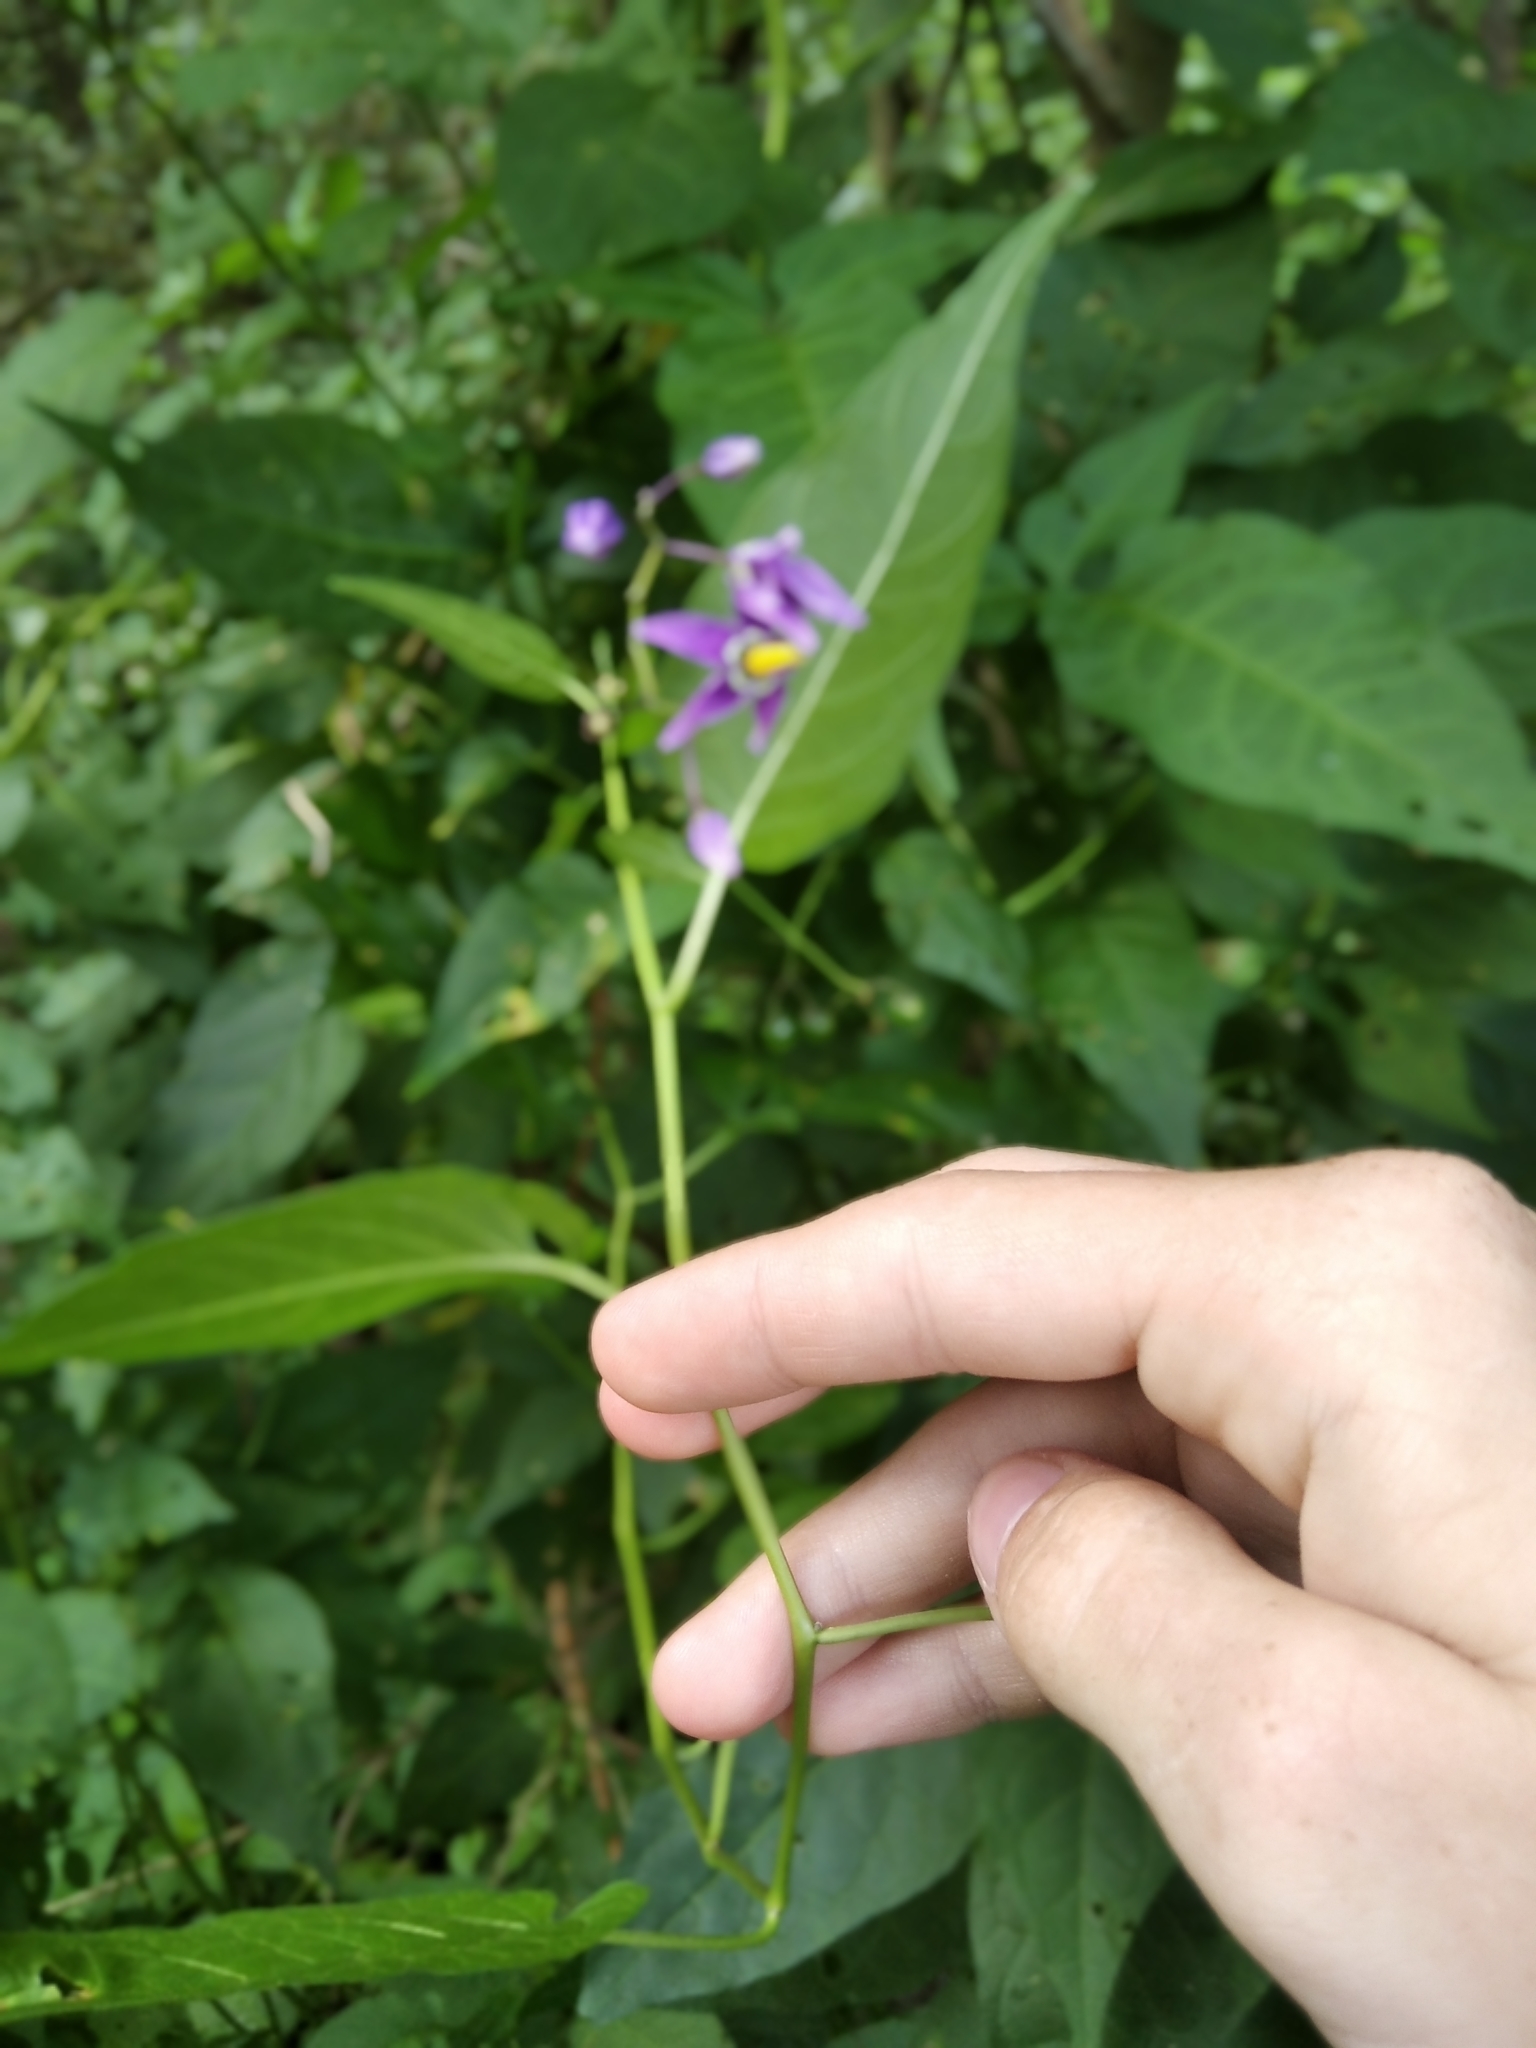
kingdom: Plantae
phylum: Tracheophyta
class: Magnoliopsida
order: Solanales
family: Solanaceae
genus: Solanum
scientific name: Solanum dulcamara
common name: Climbing nightshade
